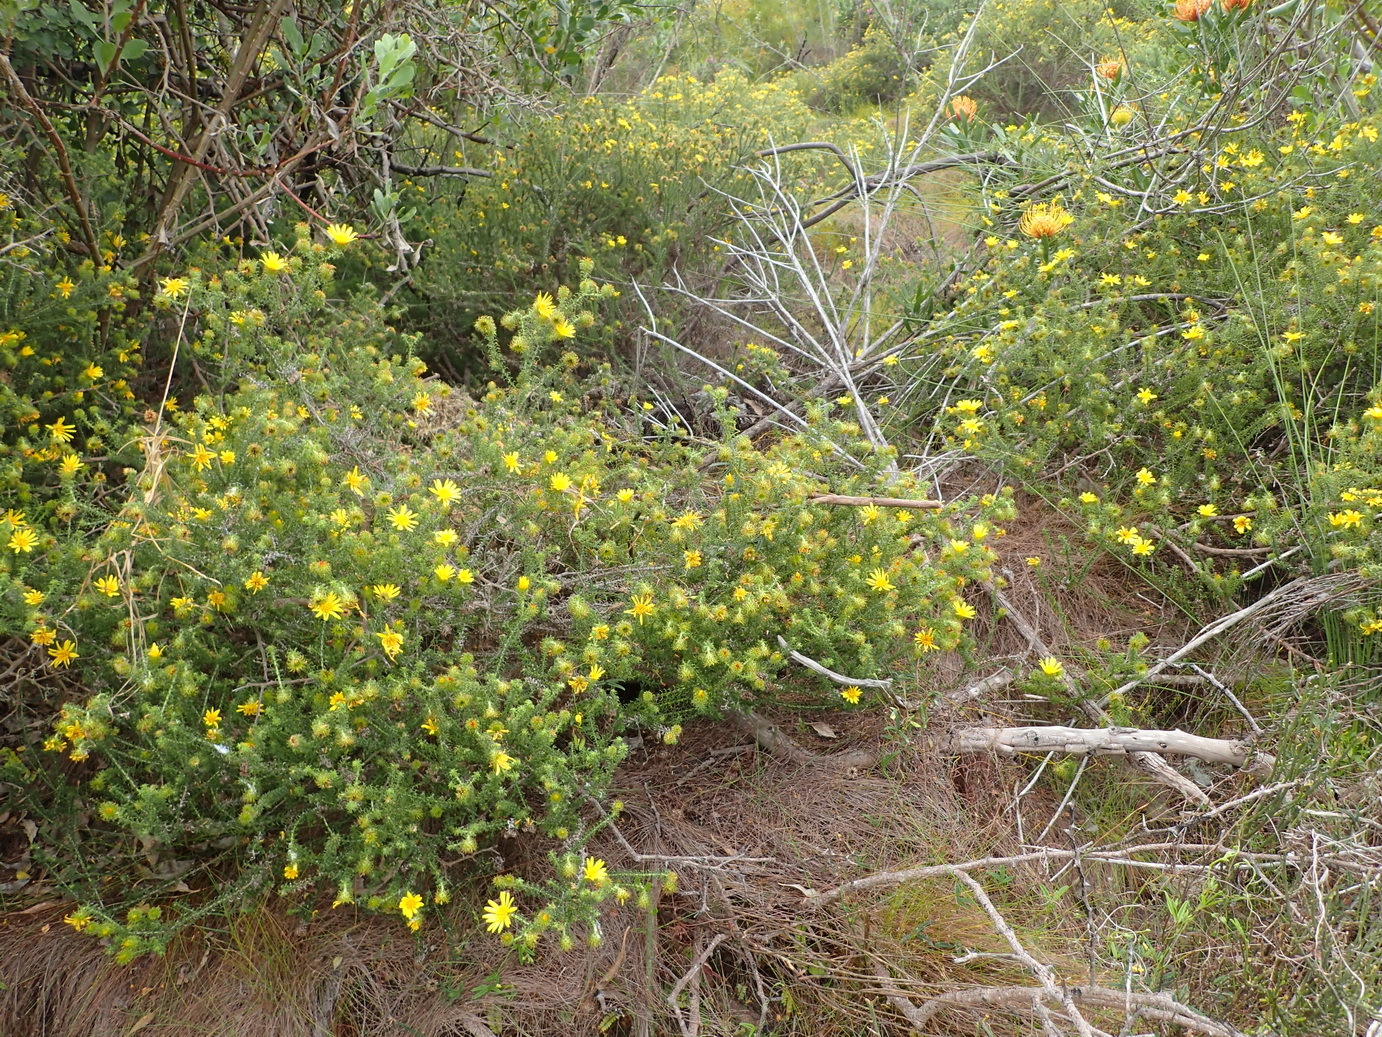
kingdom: Plantae
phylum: Tracheophyta
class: Magnoliopsida
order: Asterales
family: Asteraceae
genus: Cullumia
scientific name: Cullumia decurrens
